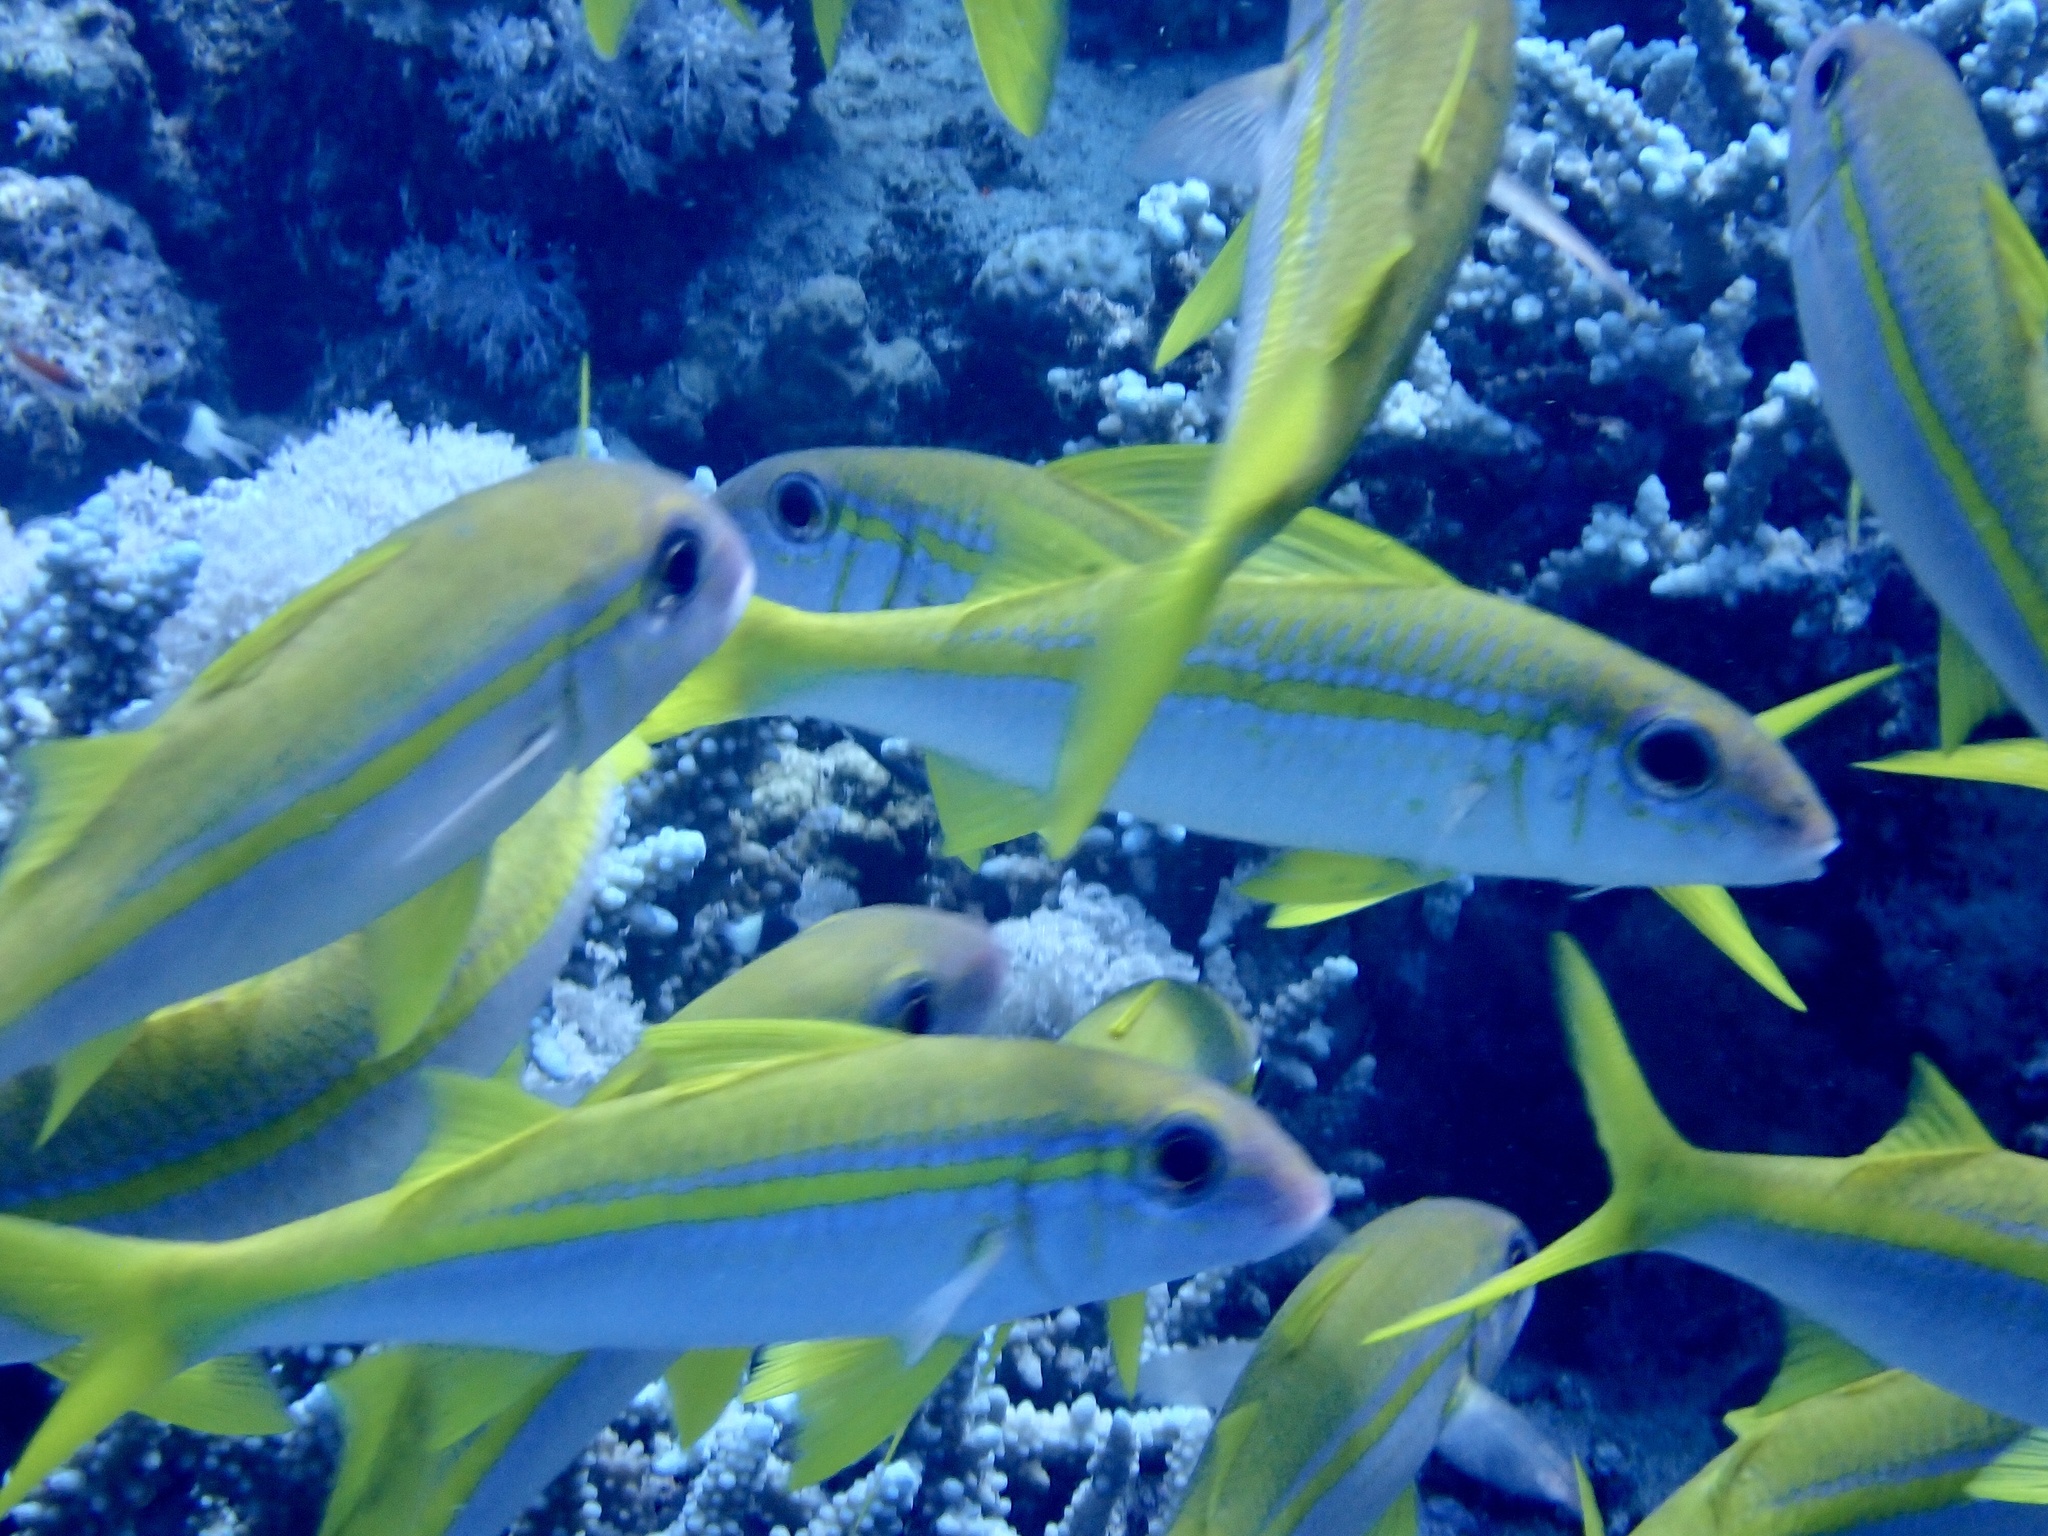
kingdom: Animalia
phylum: Chordata
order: Perciformes
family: Mullidae
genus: Mulloidichthys
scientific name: Mulloidichthys vanicolensis
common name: Yellowfin goatfish
